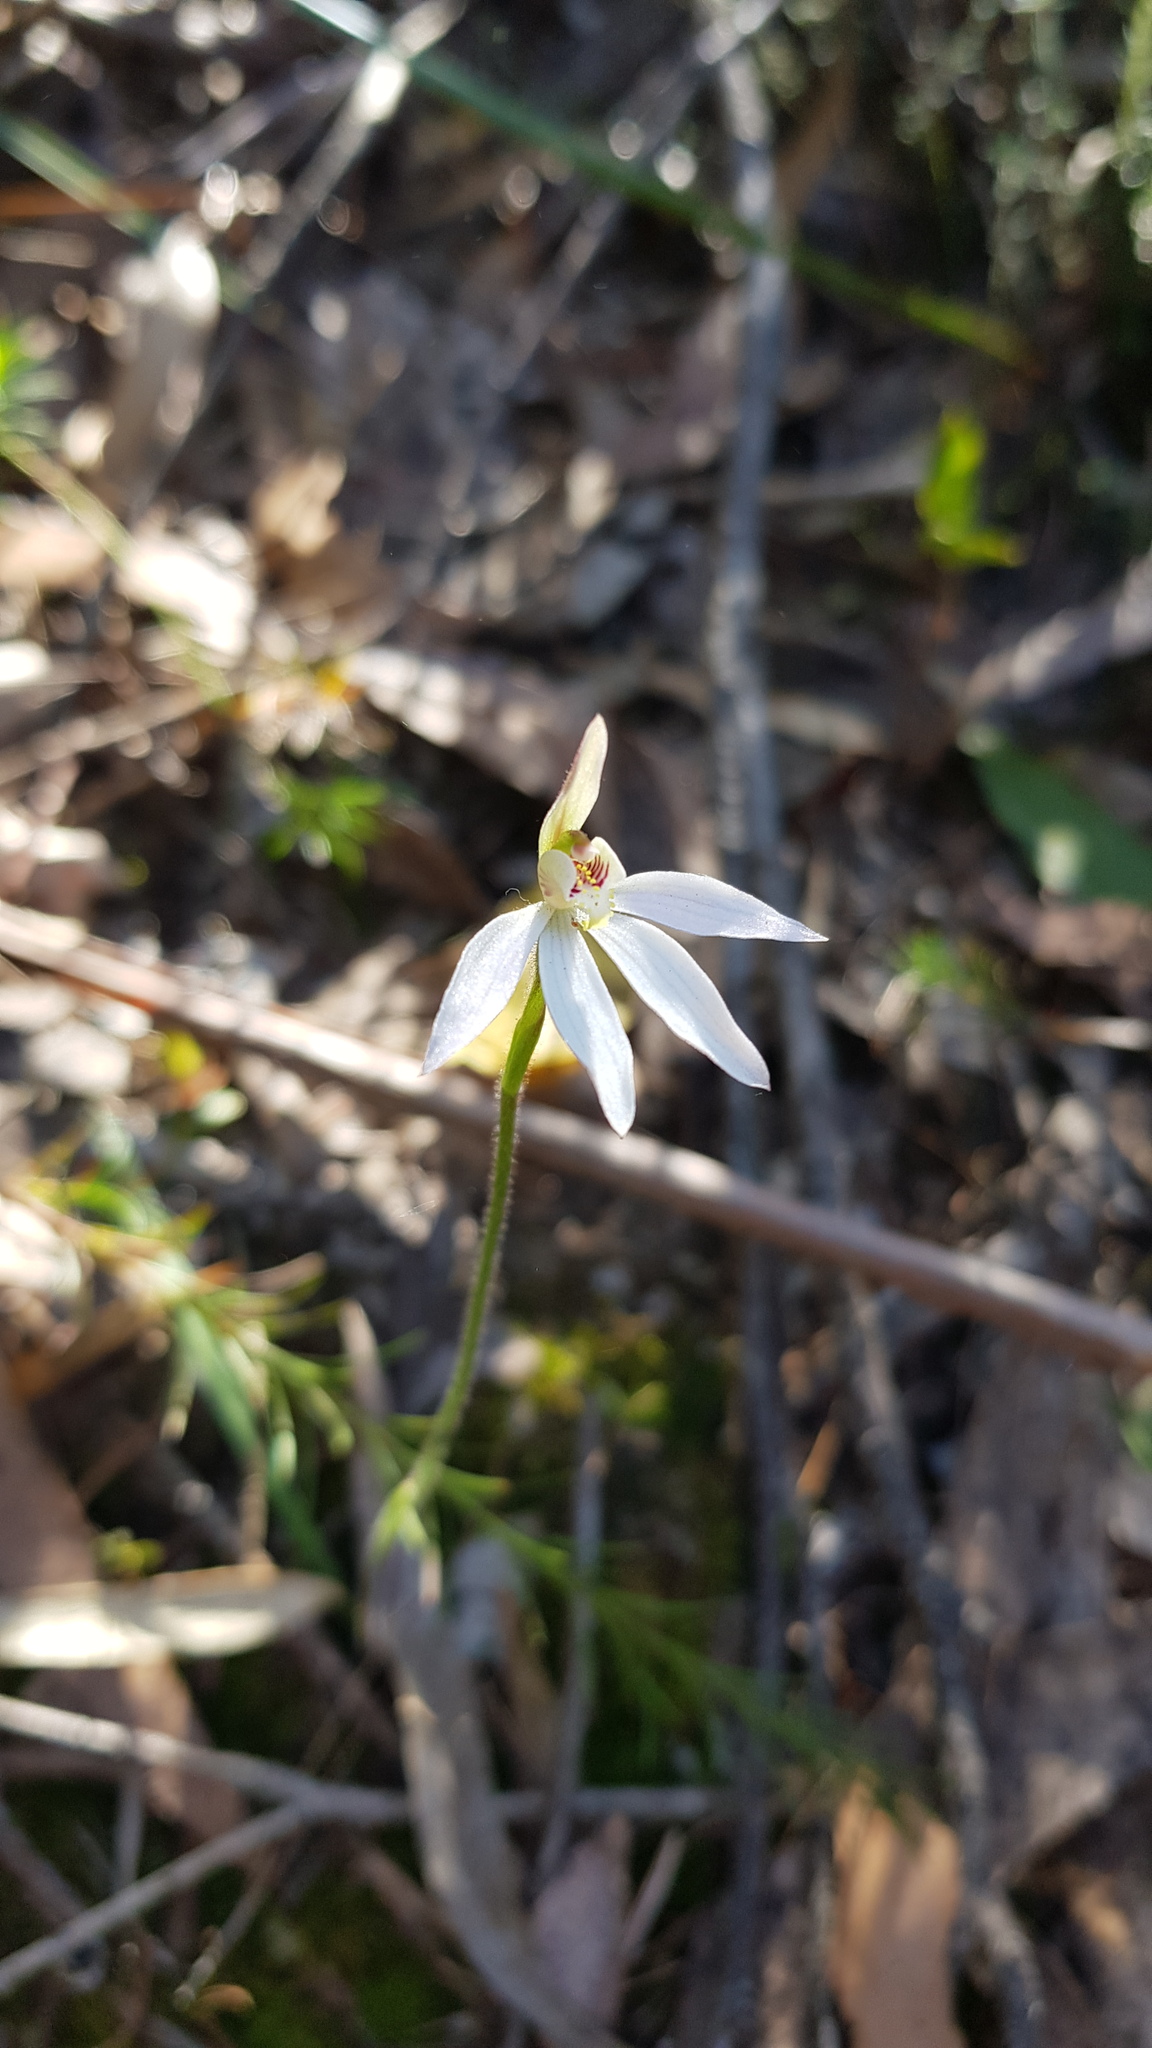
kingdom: Plantae
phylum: Tracheophyta
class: Liliopsida
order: Asparagales
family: Orchidaceae
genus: Caladenia
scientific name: Caladenia carnea
